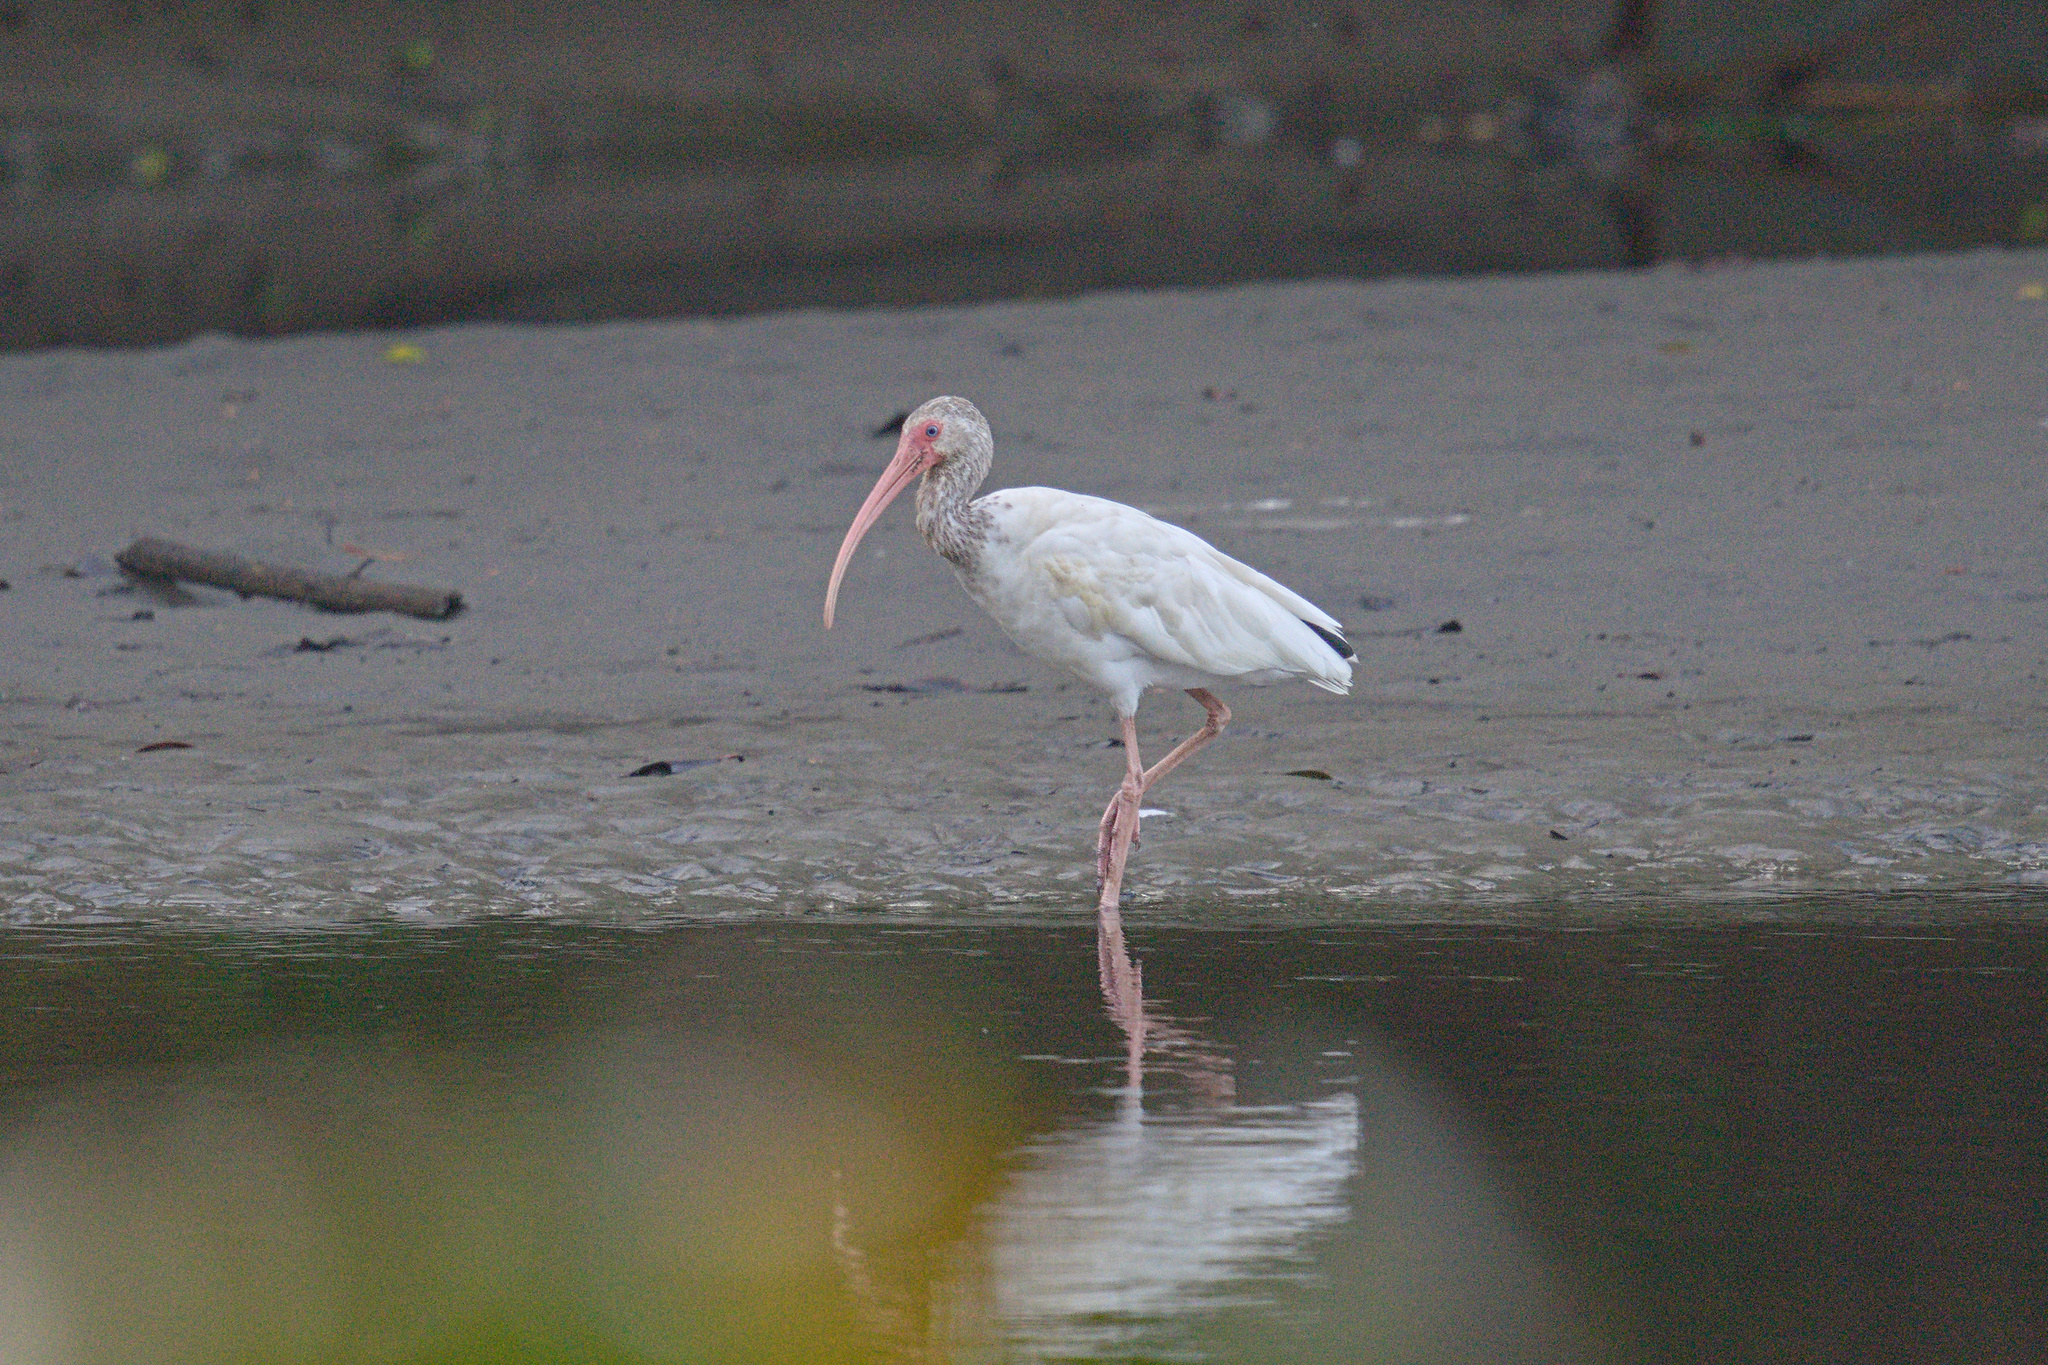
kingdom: Animalia
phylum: Chordata
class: Aves
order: Pelecaniformes
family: Threskiornithidae
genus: Eudocimus
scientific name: Eudocimus albus
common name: White ibis
